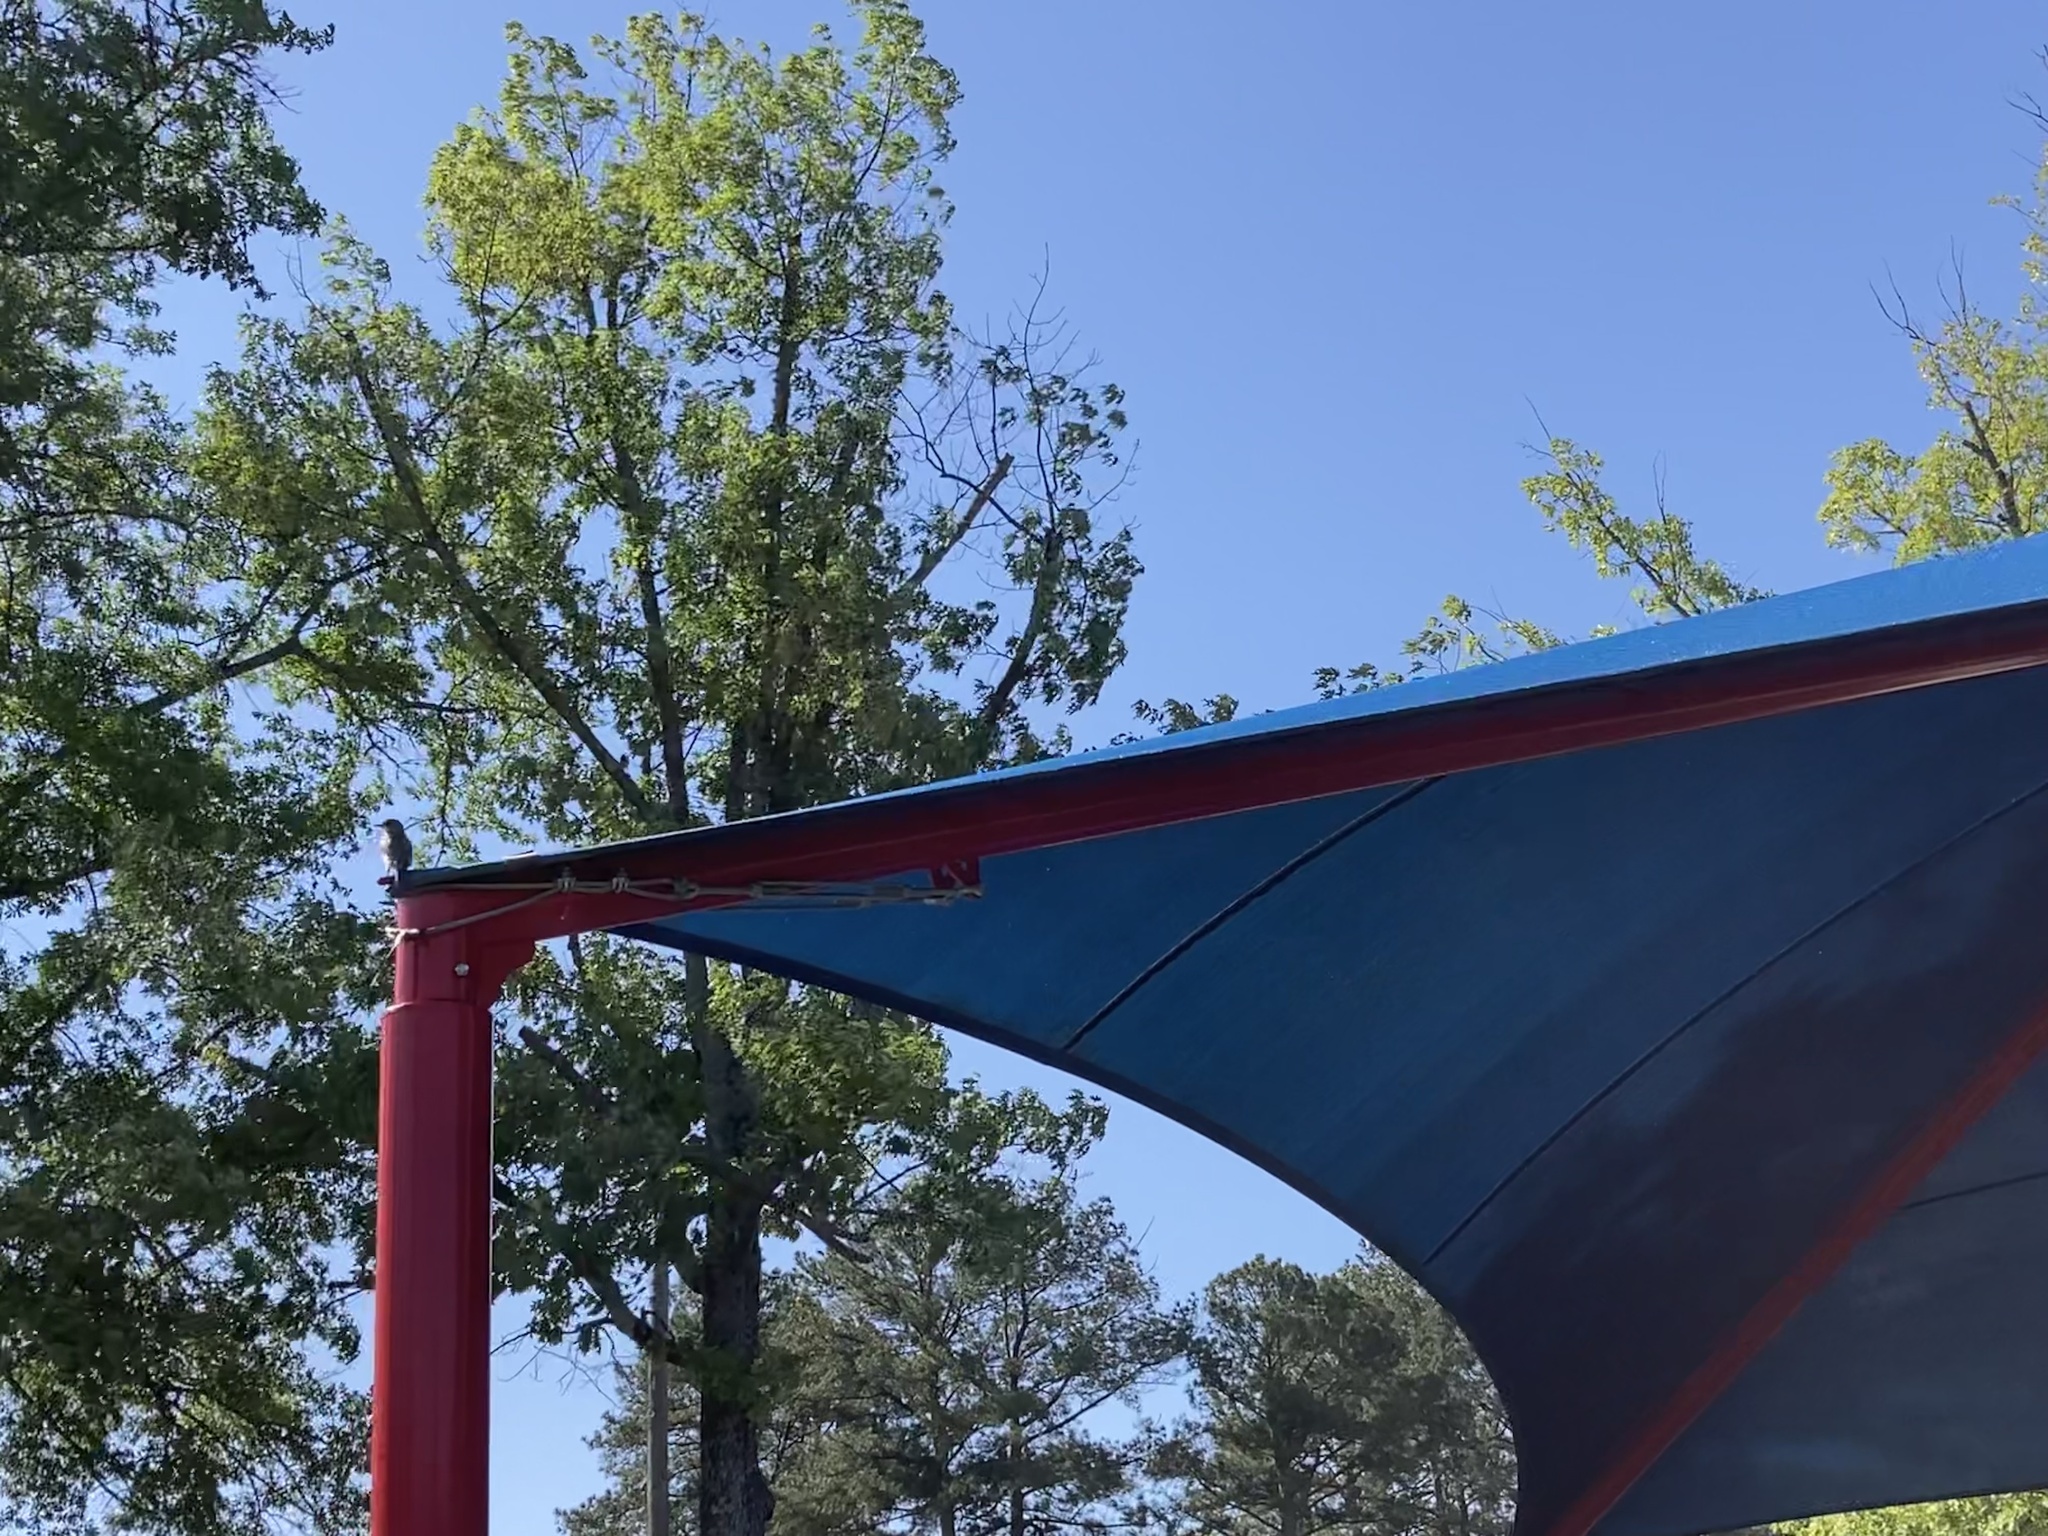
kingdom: Animalia
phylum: Chordata
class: Aves
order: Passeriformes
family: Turdidae
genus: Sialia
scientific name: Sialia sialis
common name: Eastern bluebird
